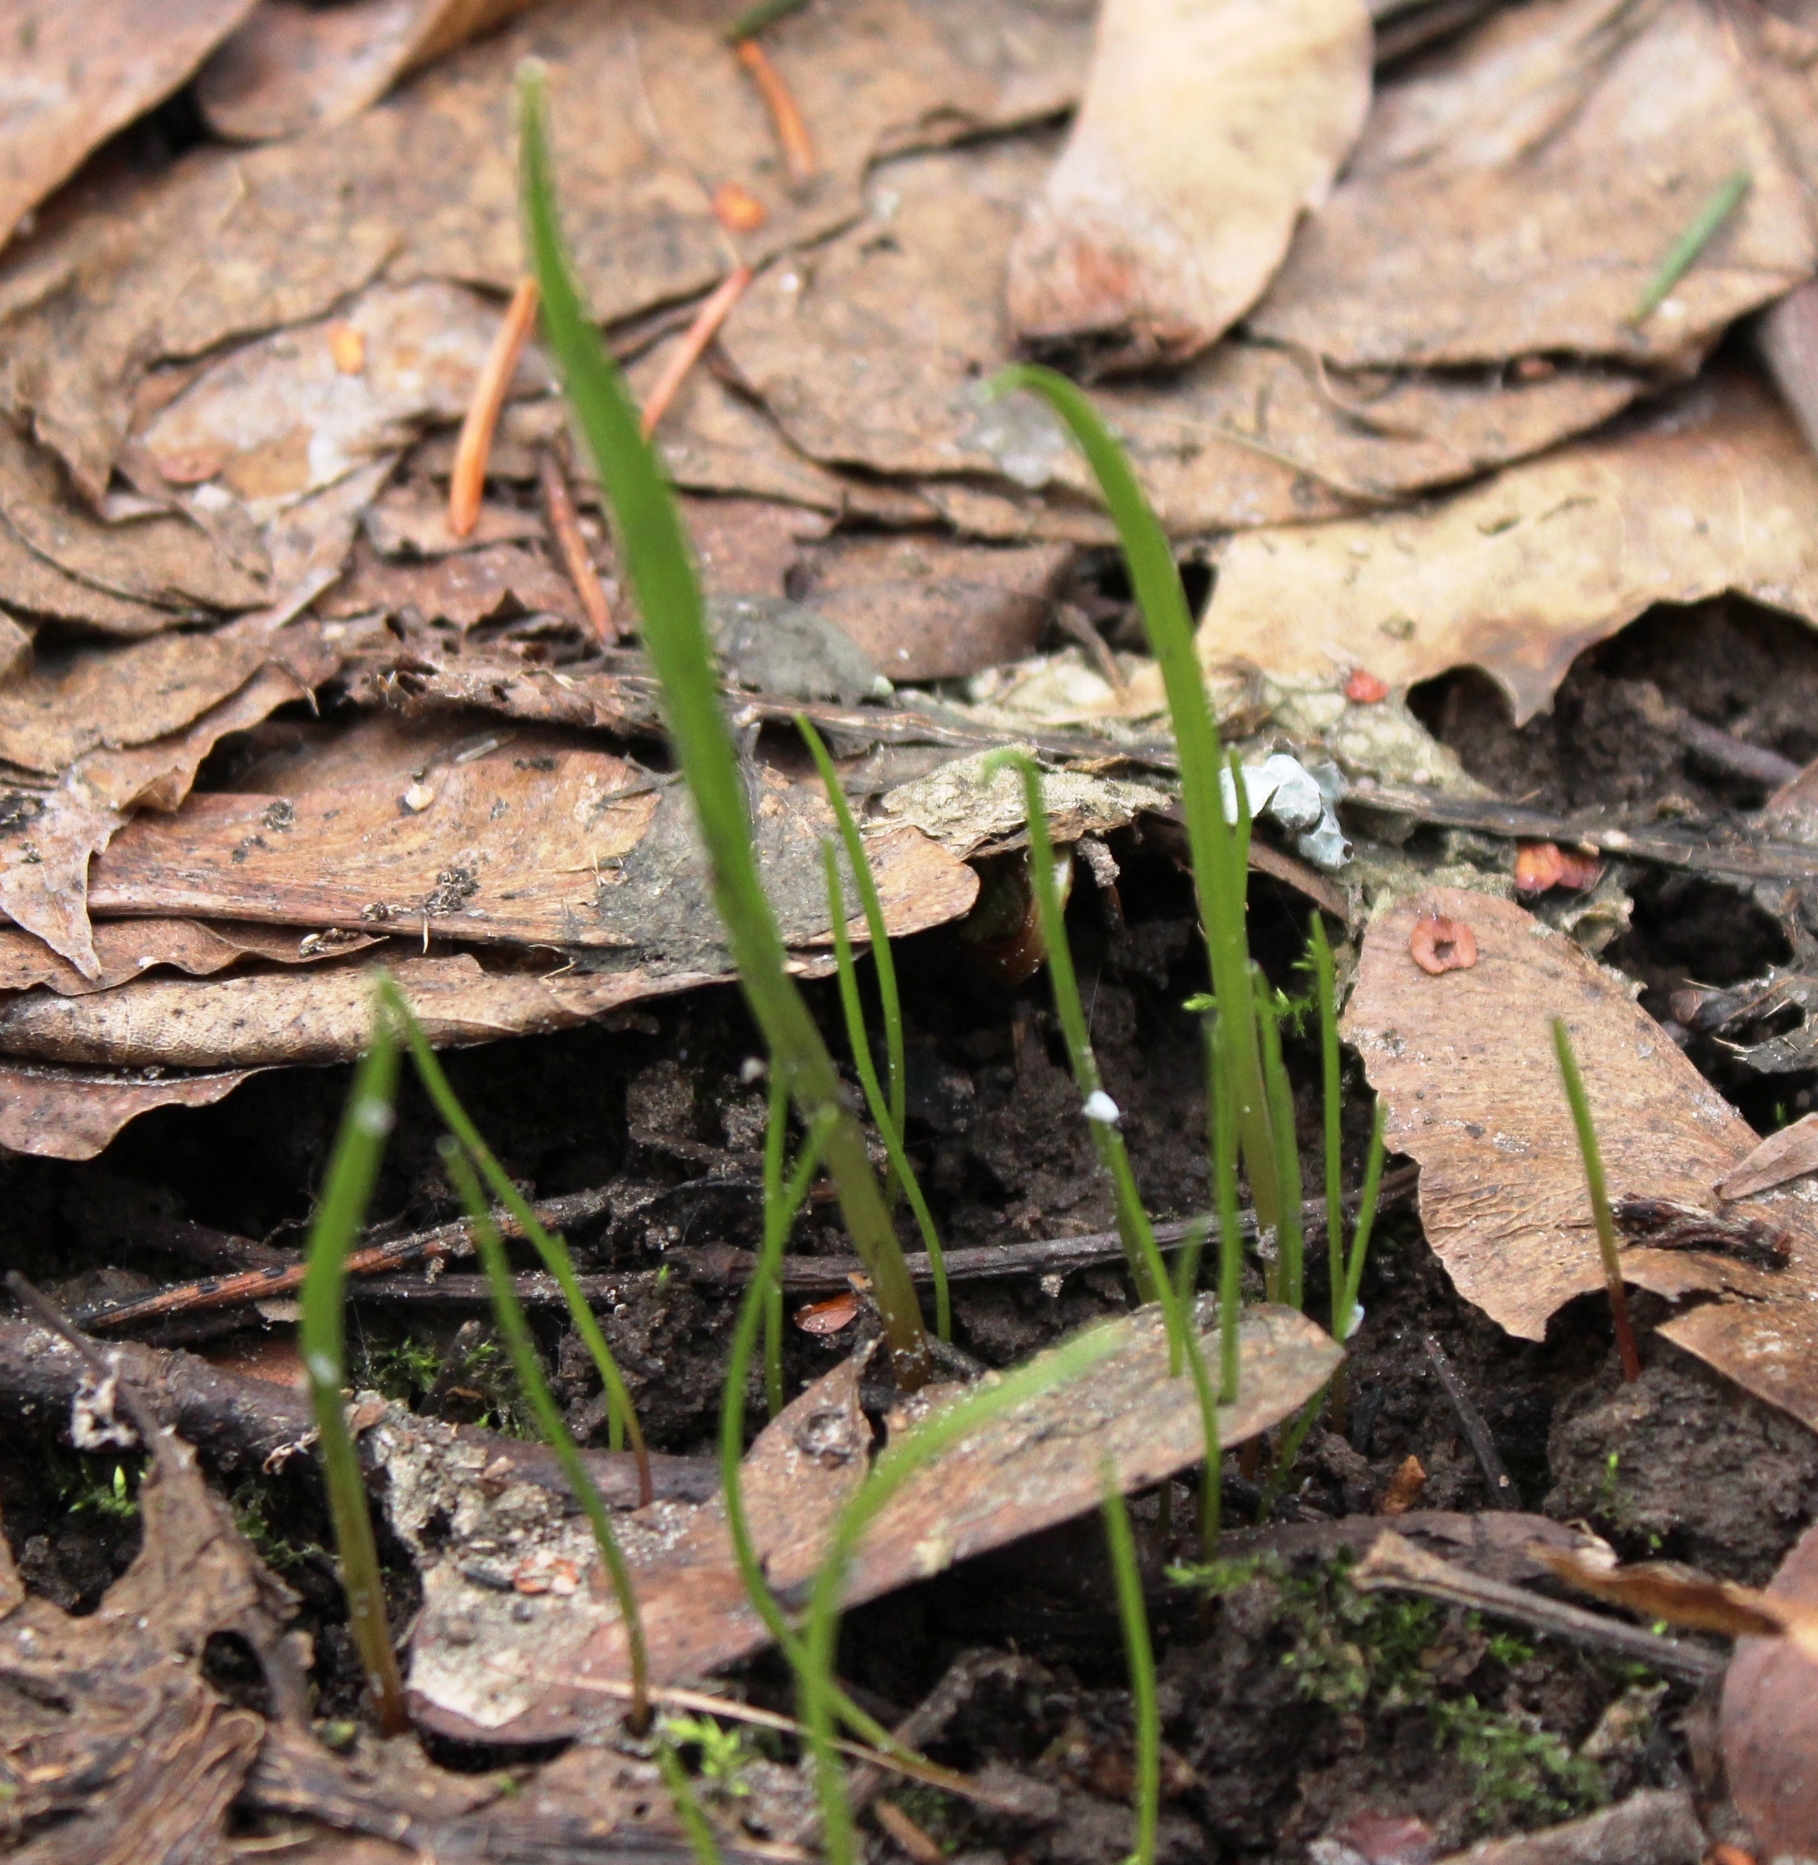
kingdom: Plantae
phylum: Tracheophyta
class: Liliopsida
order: Liliales
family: Liliaceae
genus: Gagea
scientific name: Gagea lutea
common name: Yellow star-of-bethlehem
